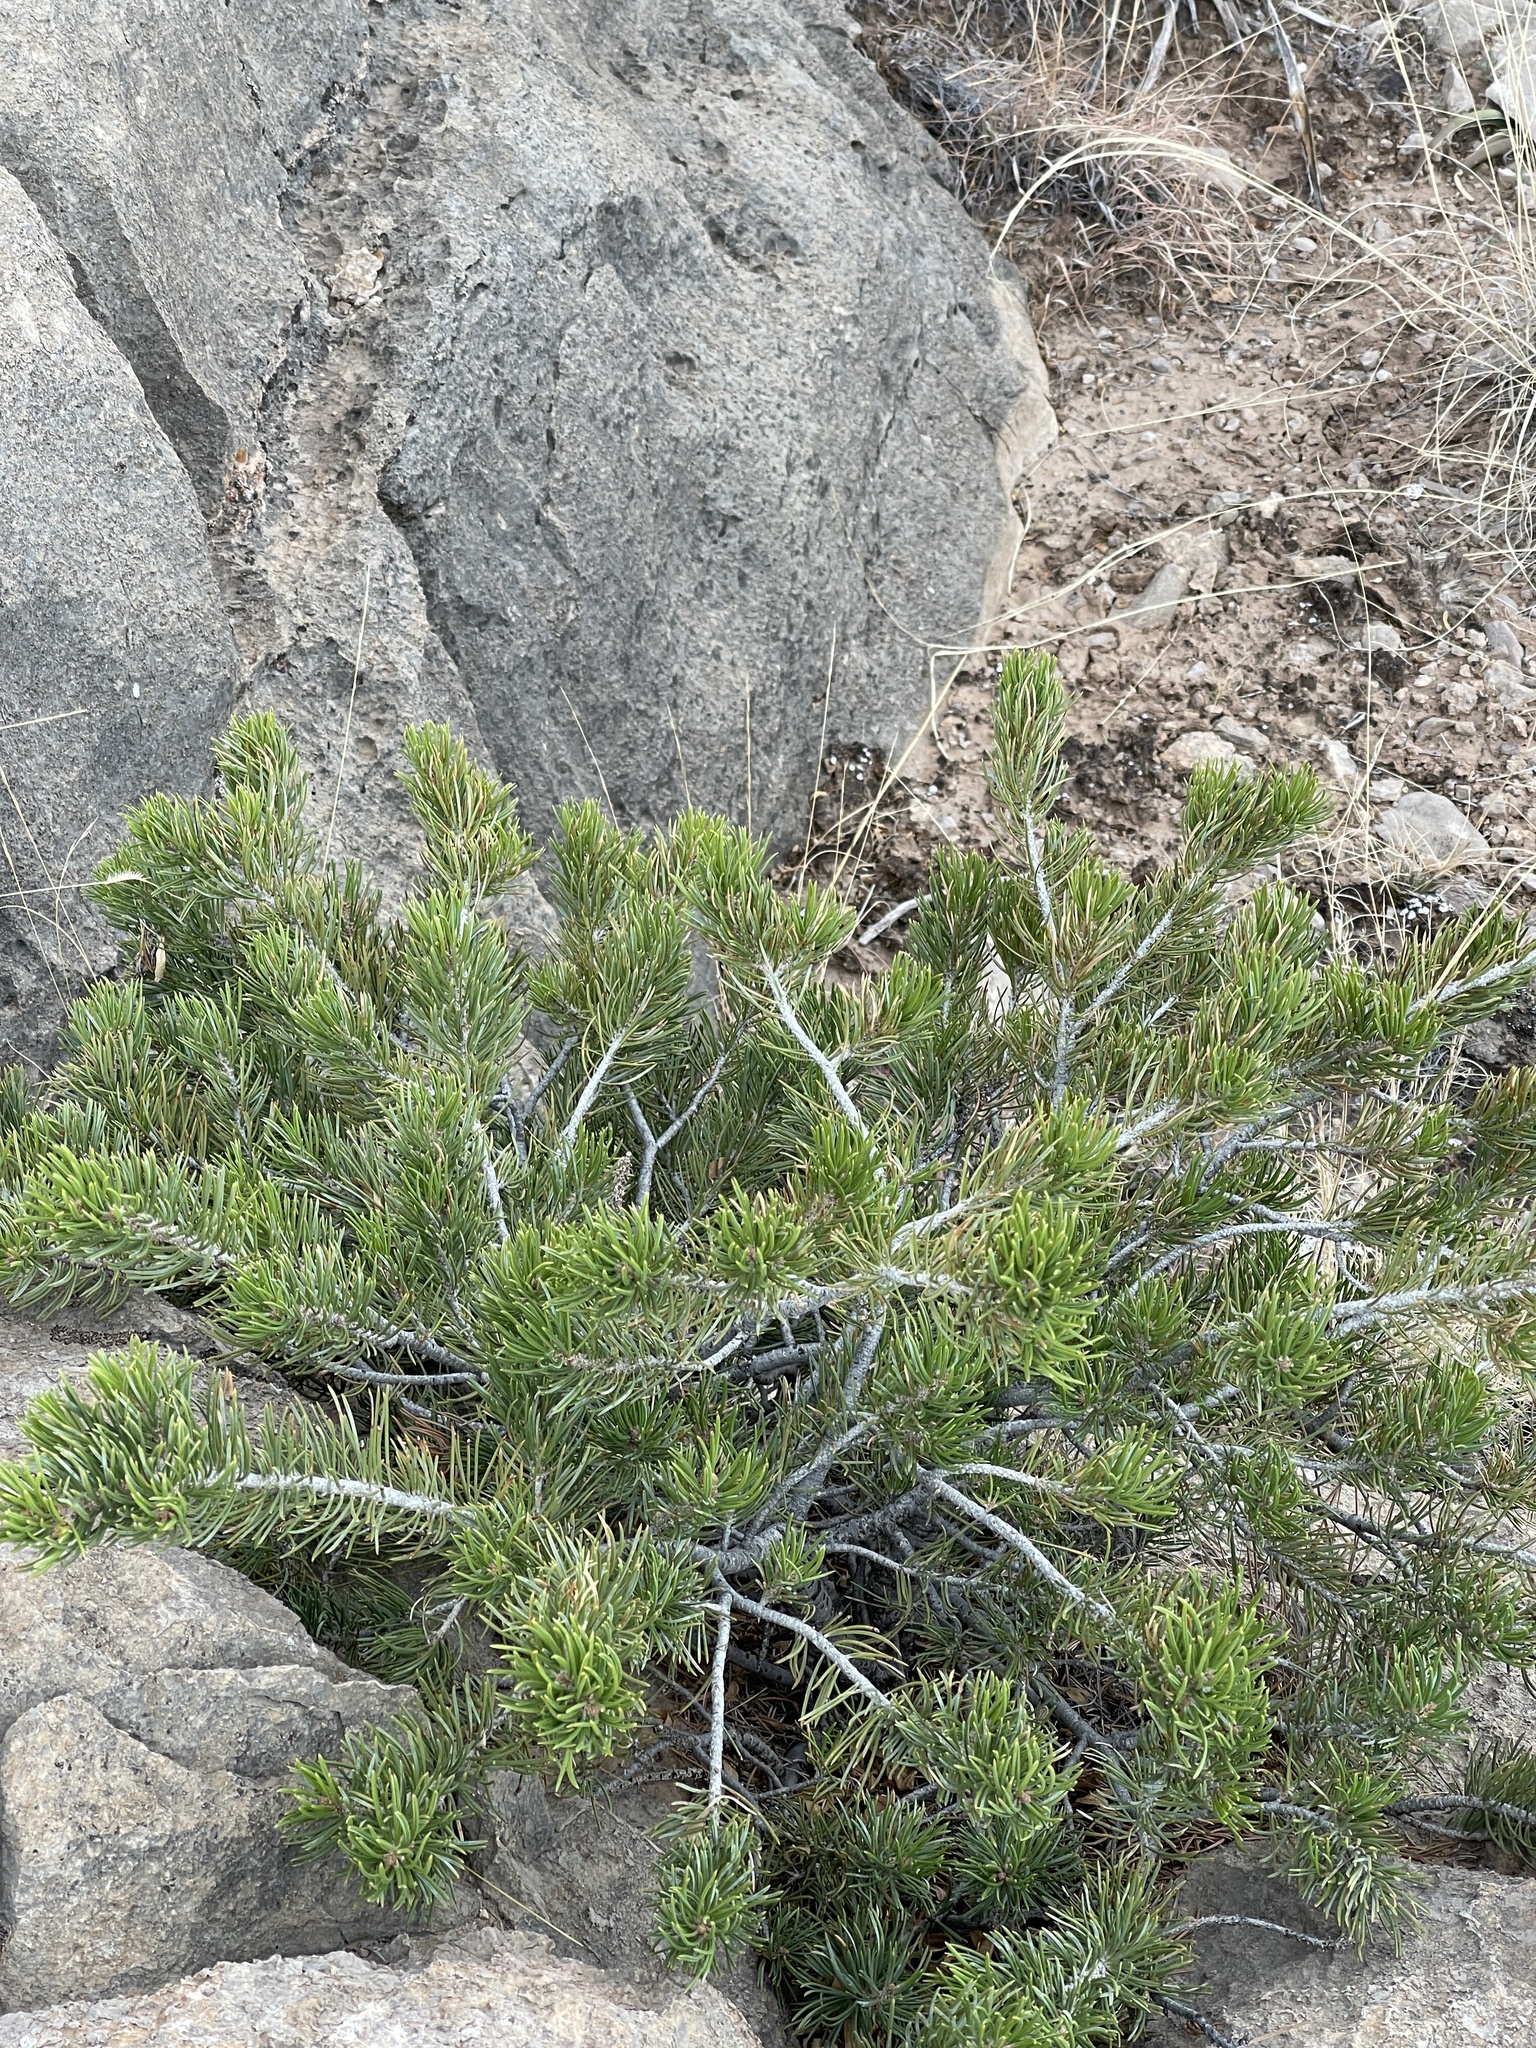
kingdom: Plantae
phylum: Tracheophyta
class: Pinopsida
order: Pinales
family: Pinaceae
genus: Pinus
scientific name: Pinus edulis
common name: Colorado pinyon
